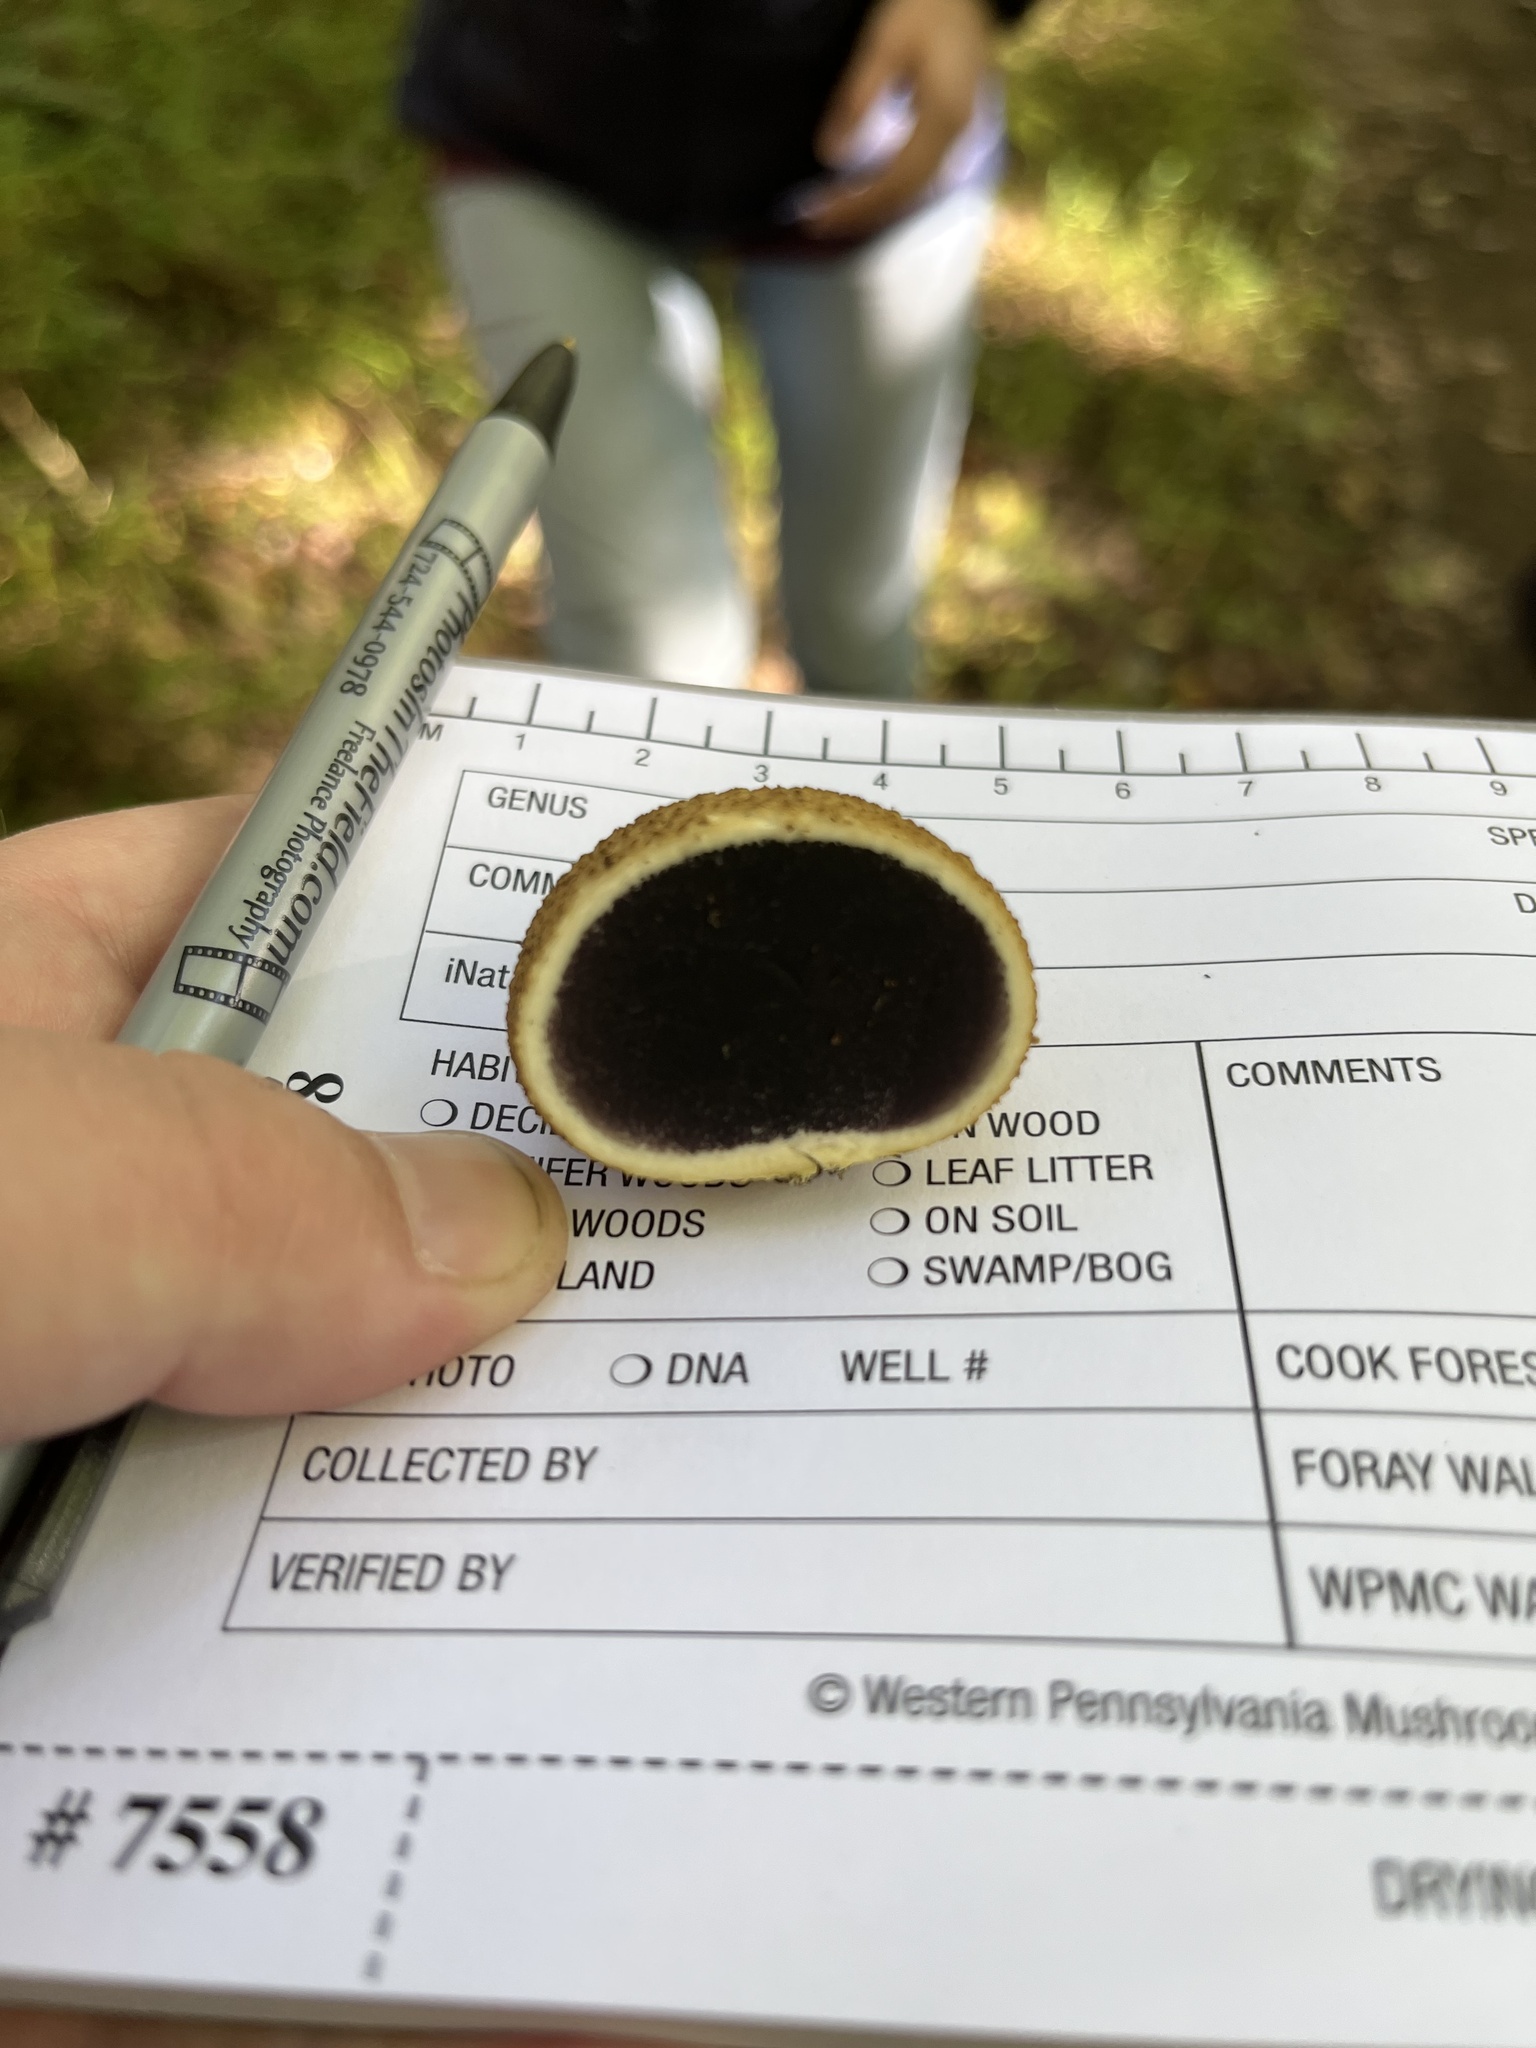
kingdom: Fungi
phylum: Basidiomycota
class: Agaricomycetes
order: Boletales
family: Sclerodermataceae
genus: Scleroderma
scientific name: Scleroderma citrinum
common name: Common earthball
